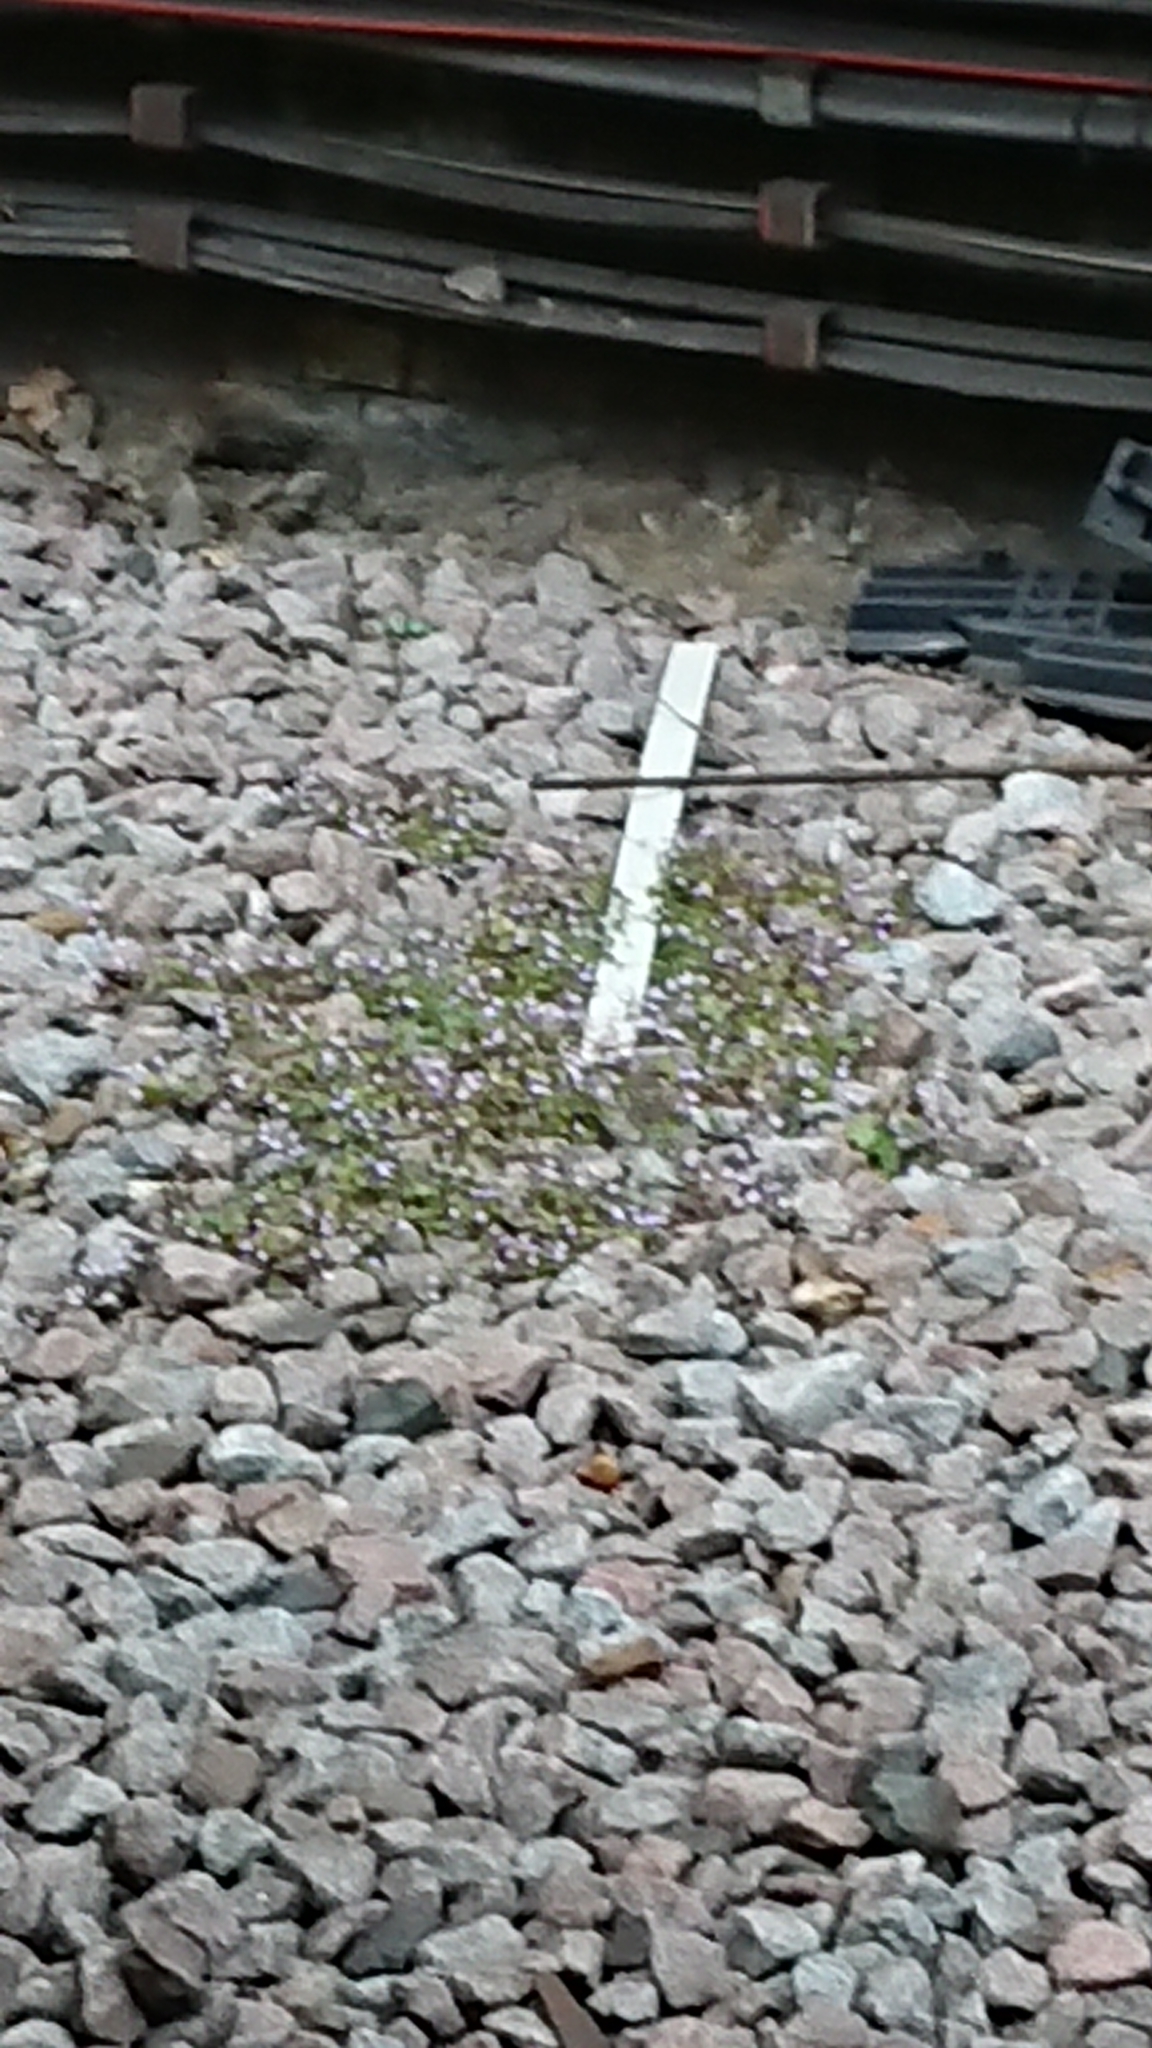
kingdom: Plantae
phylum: Tracheophyta
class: Magnoliopsida
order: Lamiales
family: Plantaginaceae
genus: Cymbalaria
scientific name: Cymbalaria muralis
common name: Ivy-leaved toadflax
